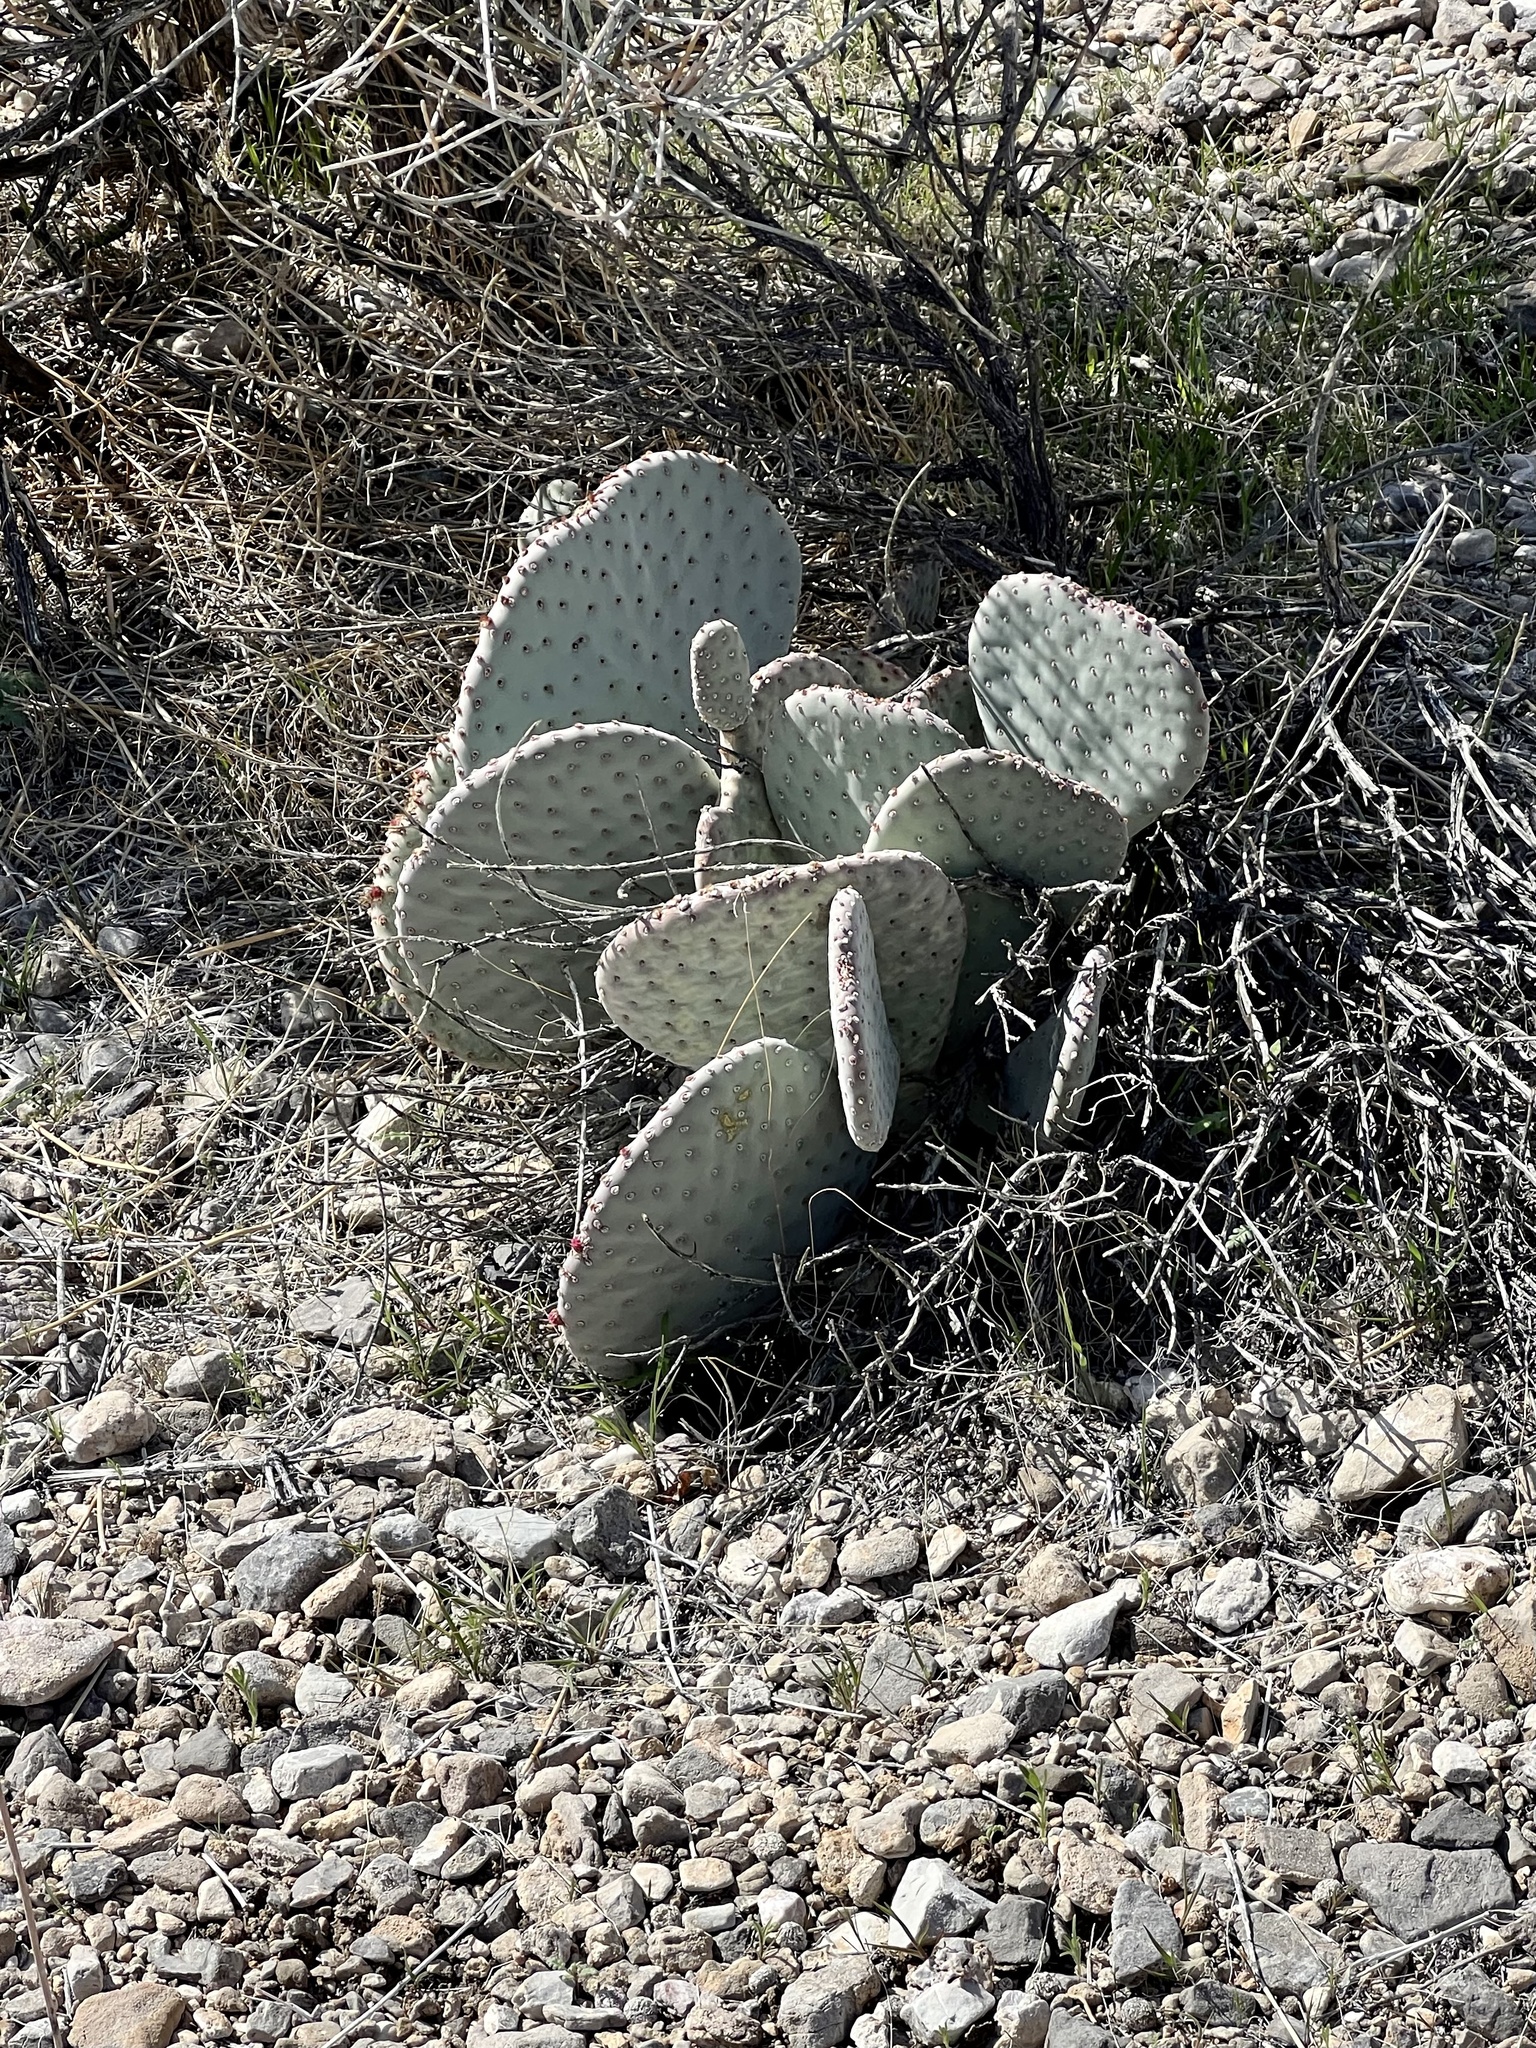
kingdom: Plantae
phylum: Tracheophyta
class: Magnoliopsida
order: Caryophyllales
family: Cactaceae
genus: Opuntia
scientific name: Opuntia basilaris
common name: Beavertail prickly-pear
